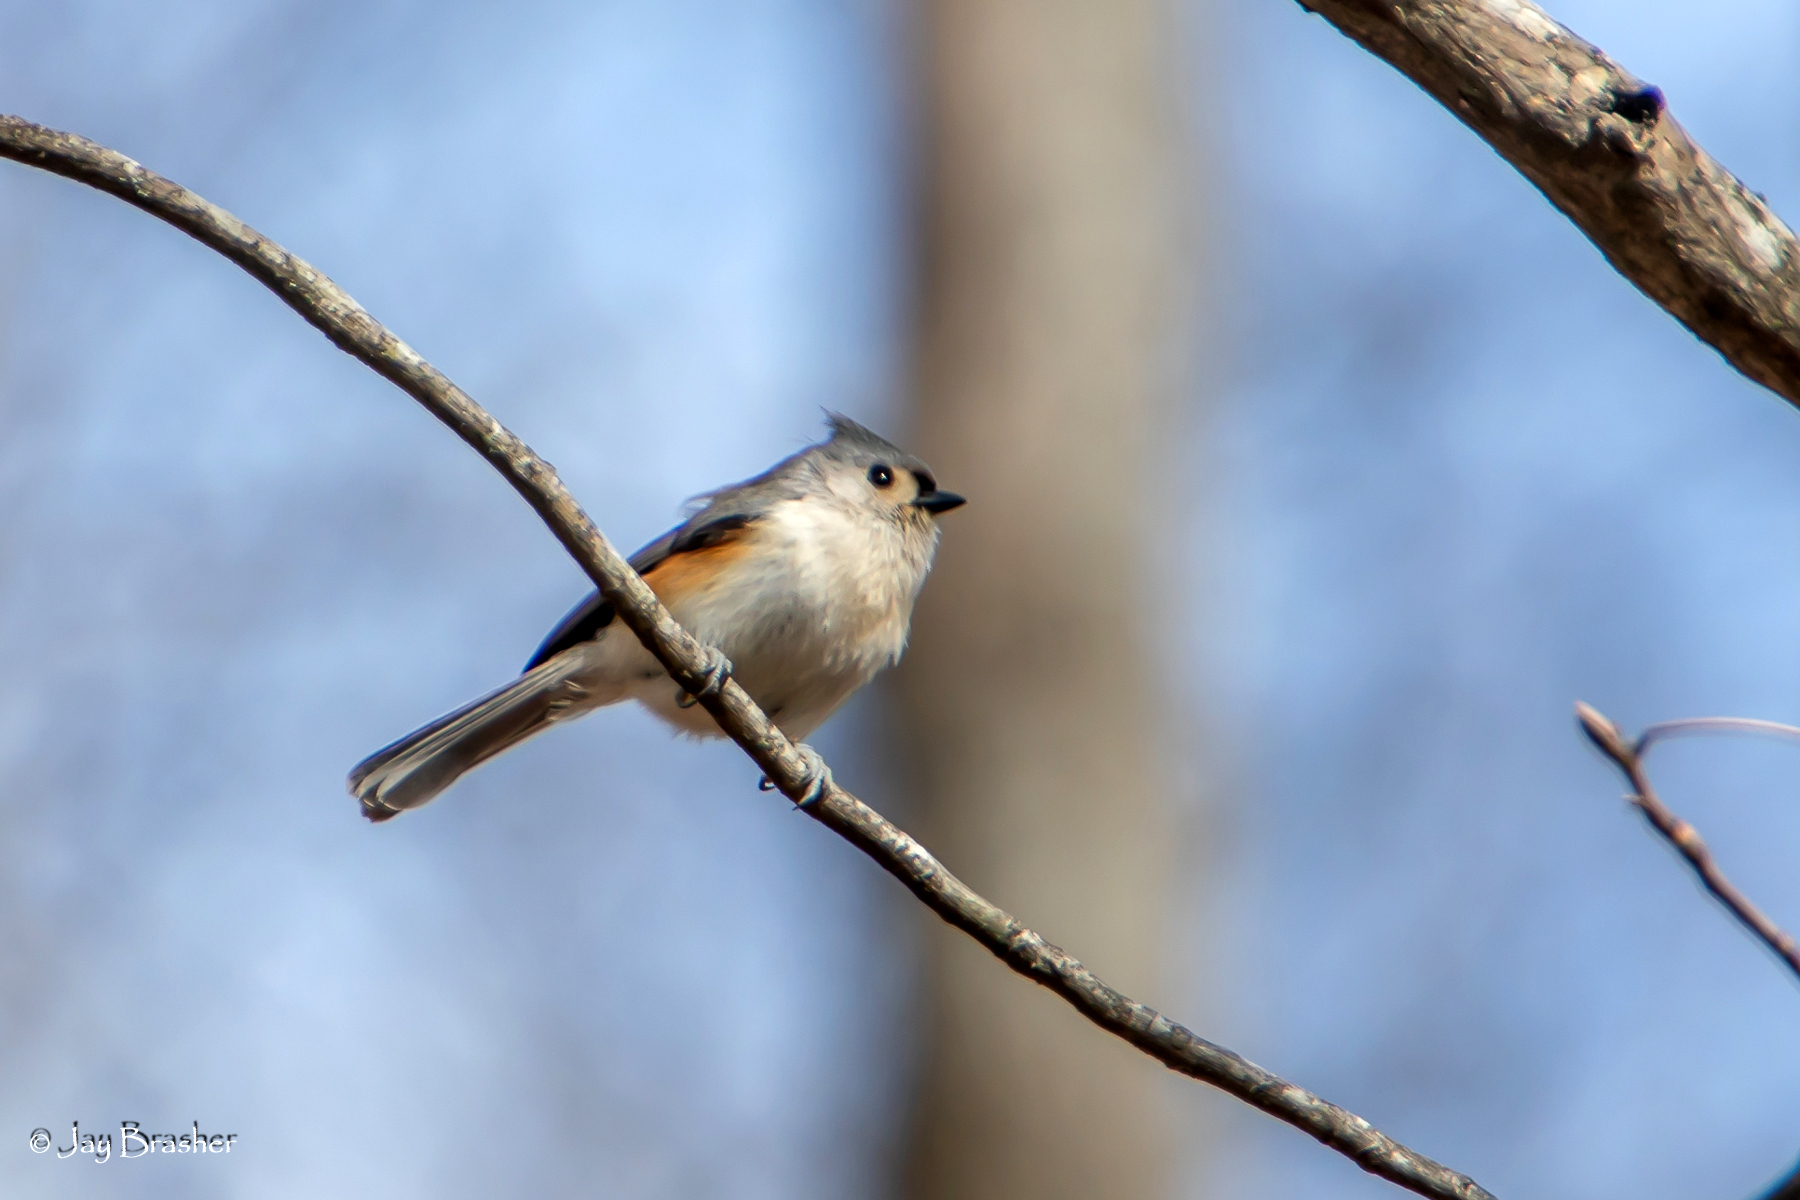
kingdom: Animalia
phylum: Chordata
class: Aves
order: Passeriformes
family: Paridae
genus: Baeolophus
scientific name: Baeolophus bicolor
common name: Tufted titmouse
